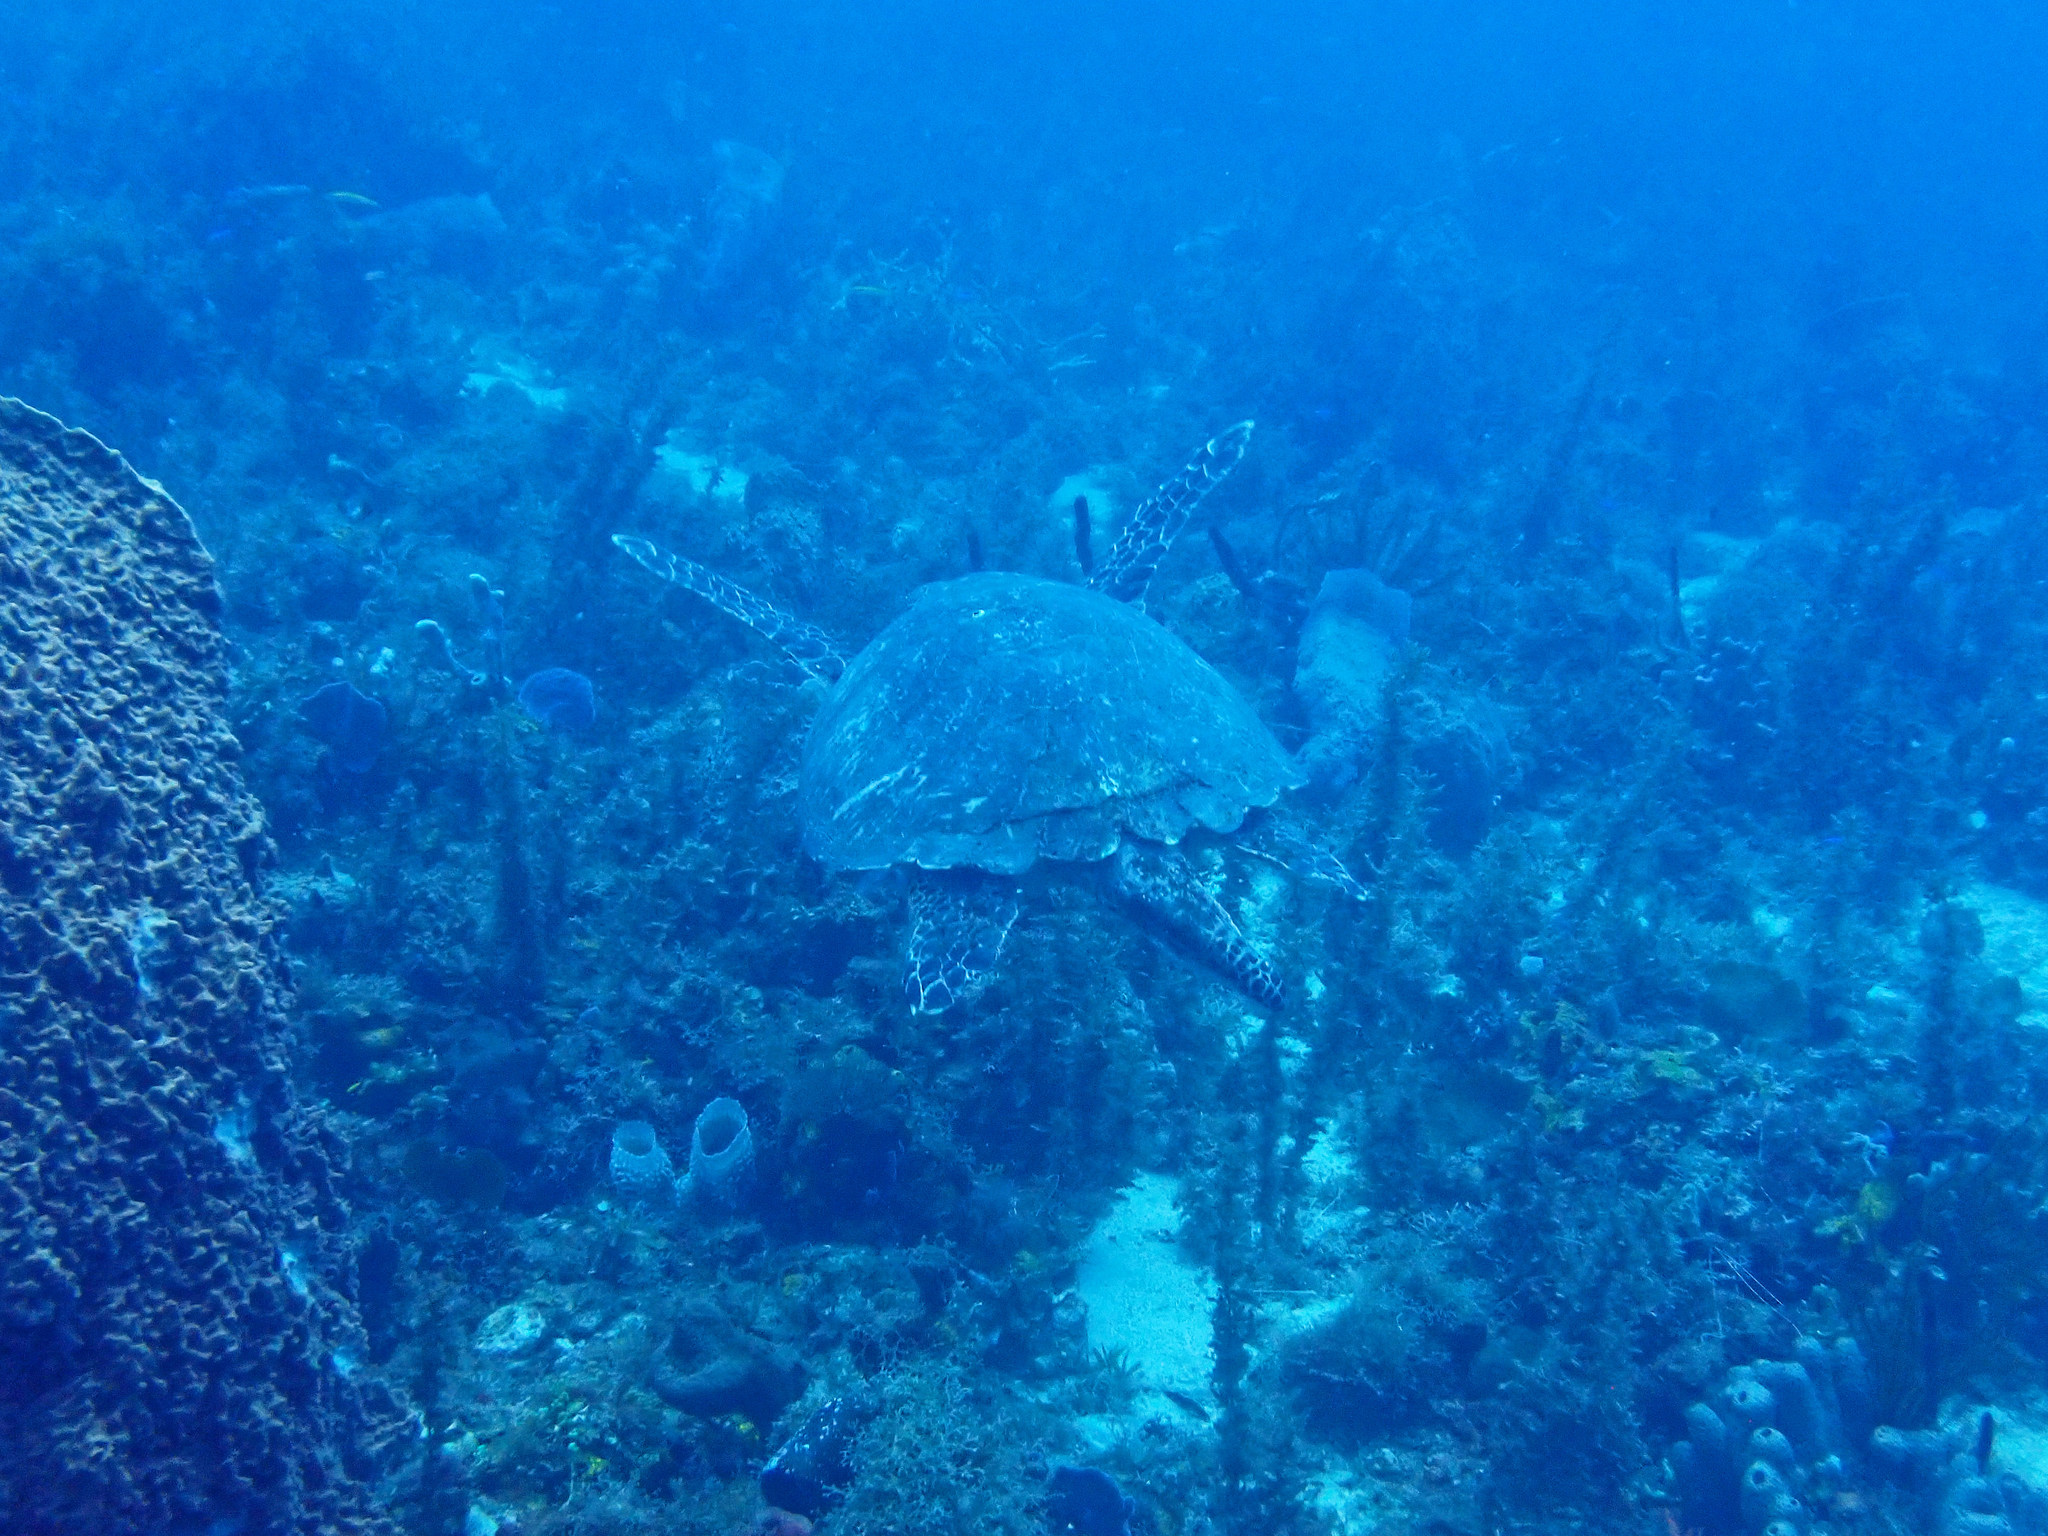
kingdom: Animalia
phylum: Chordata
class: Testudines
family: Cheloniidae
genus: Eretmochelys
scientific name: Eretmochelys imbricata
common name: Hawksbill turtle
